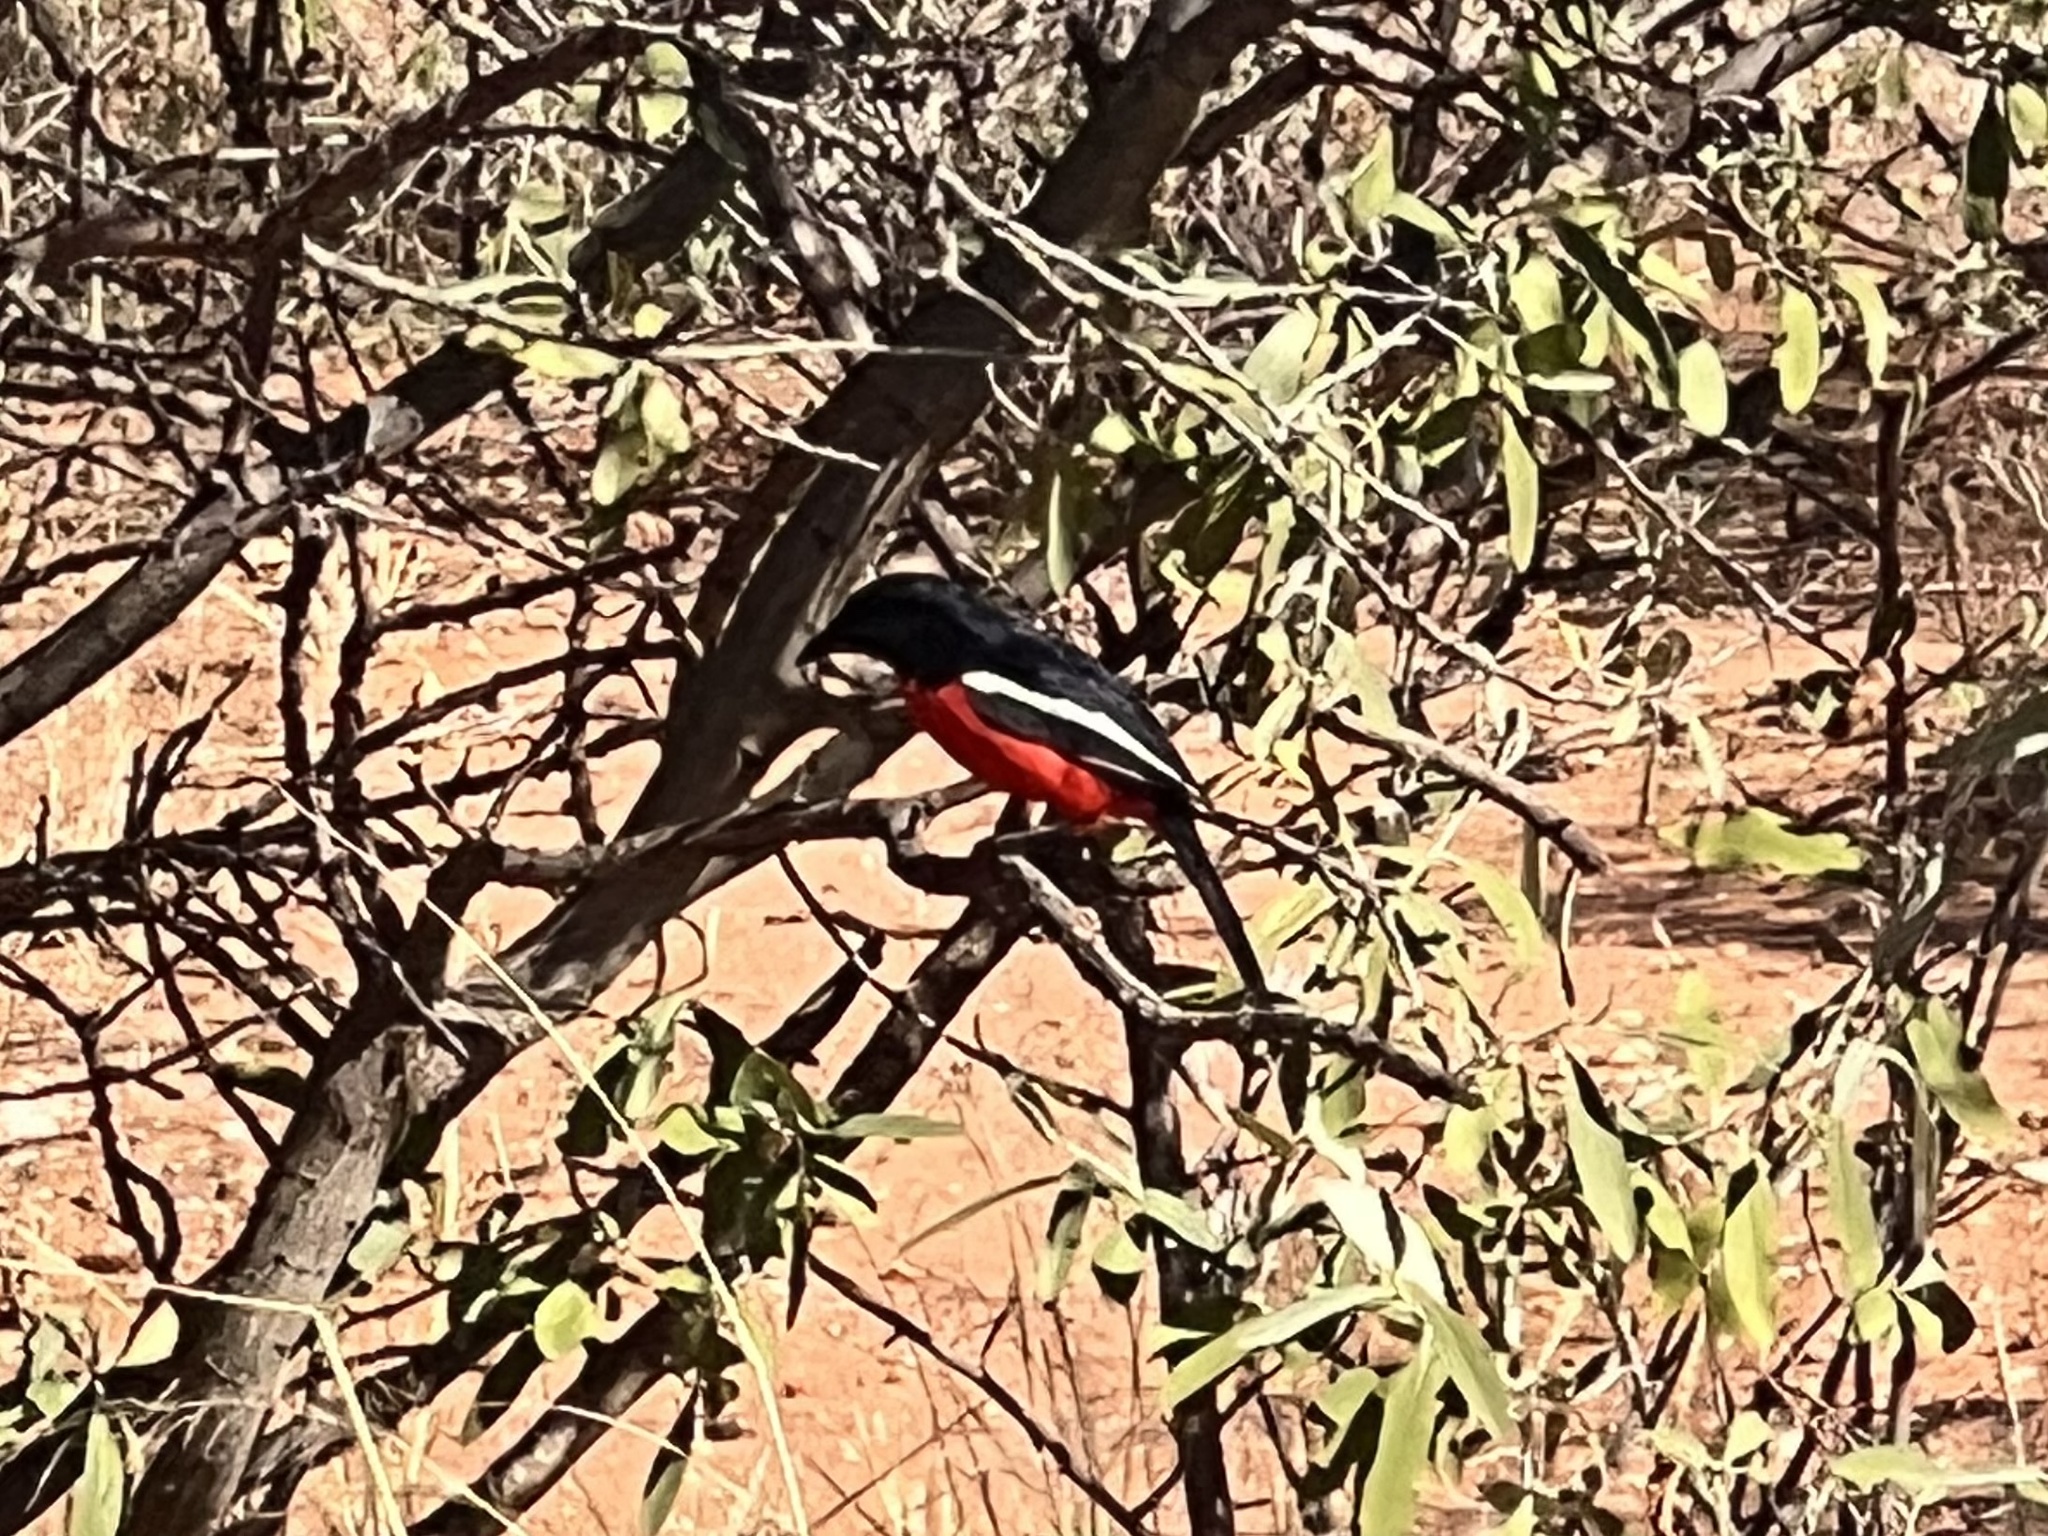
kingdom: Animalia
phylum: Chordata
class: Aves
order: Passeriformes
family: Malaconotidae
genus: Laniarius
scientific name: Laniarius atrococcineus
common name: Crimson-breasted shrike
